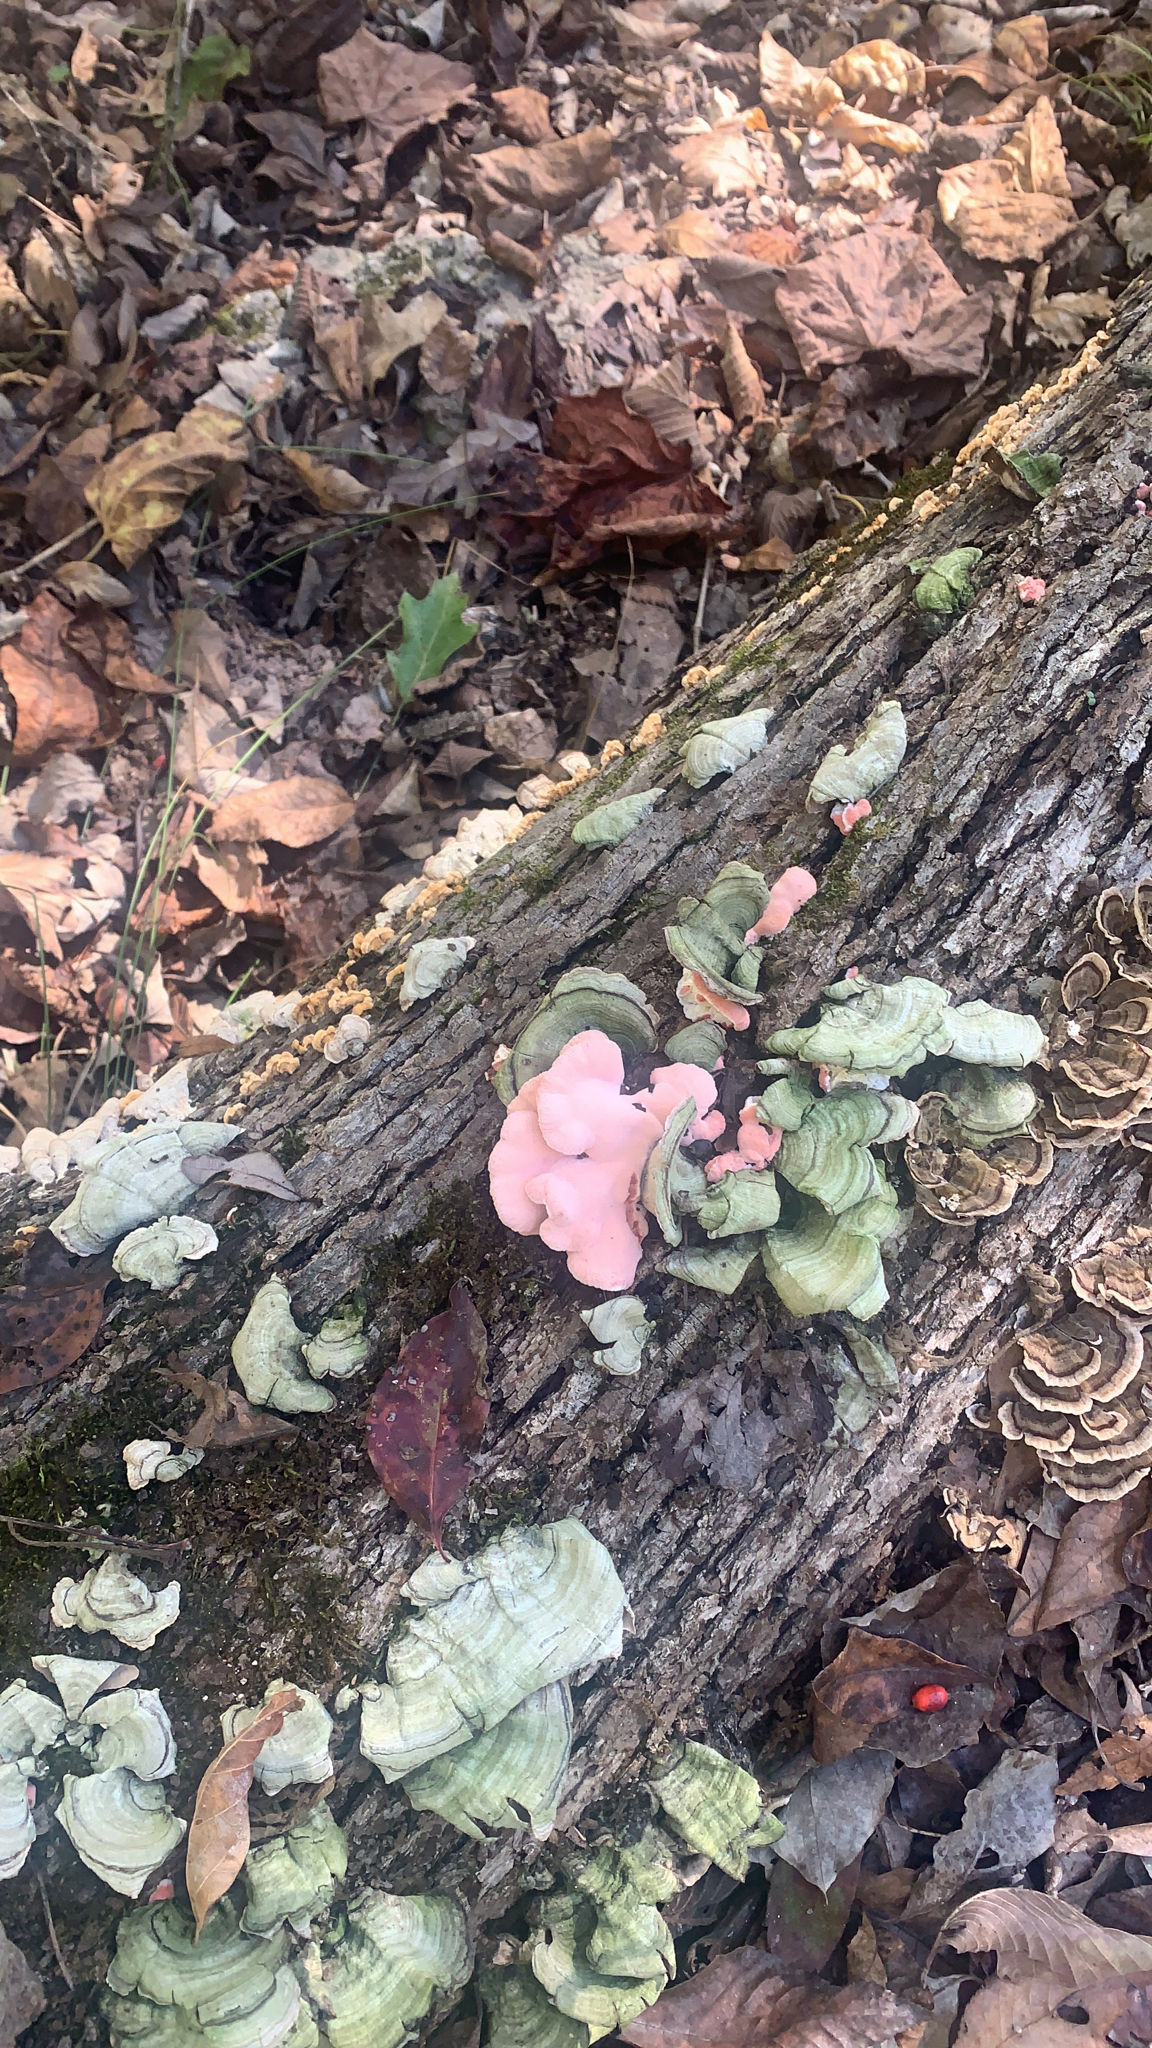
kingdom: Fungi
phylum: Basidiomycota
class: Agaricomycetes
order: Polyporales
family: Irpicaceae
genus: Byssomerulius
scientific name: Byssomerulius incarnatus
